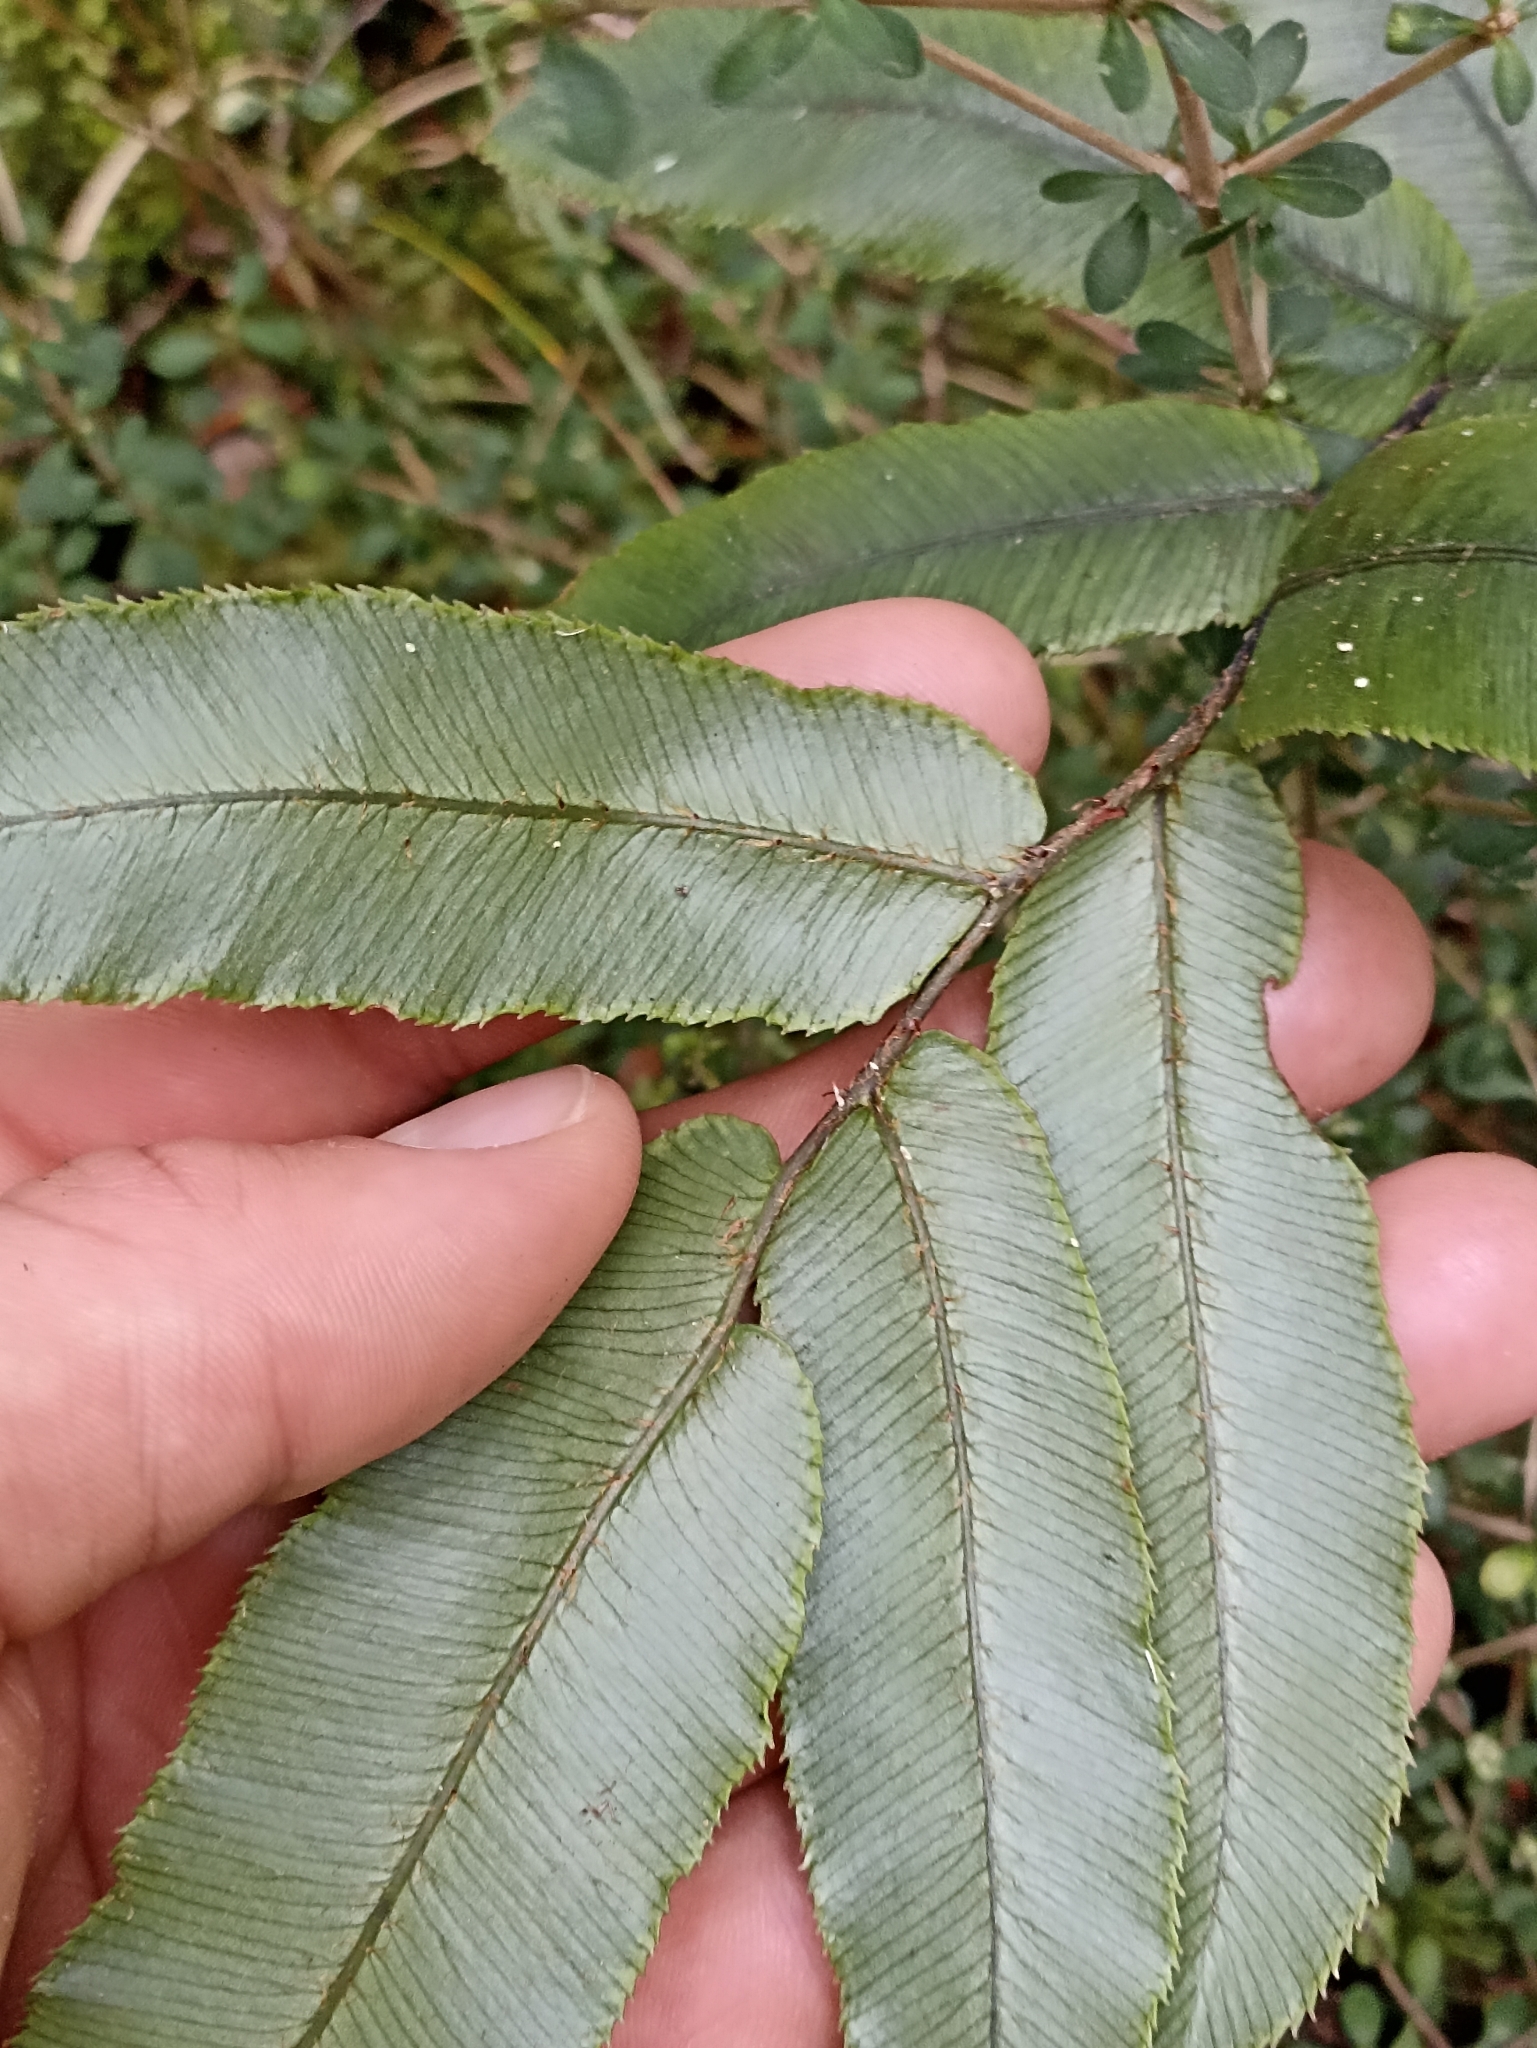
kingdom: Plantae
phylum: Tracheophyta
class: Polypodiopsida
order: Polypodiales
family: Blechnaceae
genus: Parablechnum
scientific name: Parablechnum procerum
